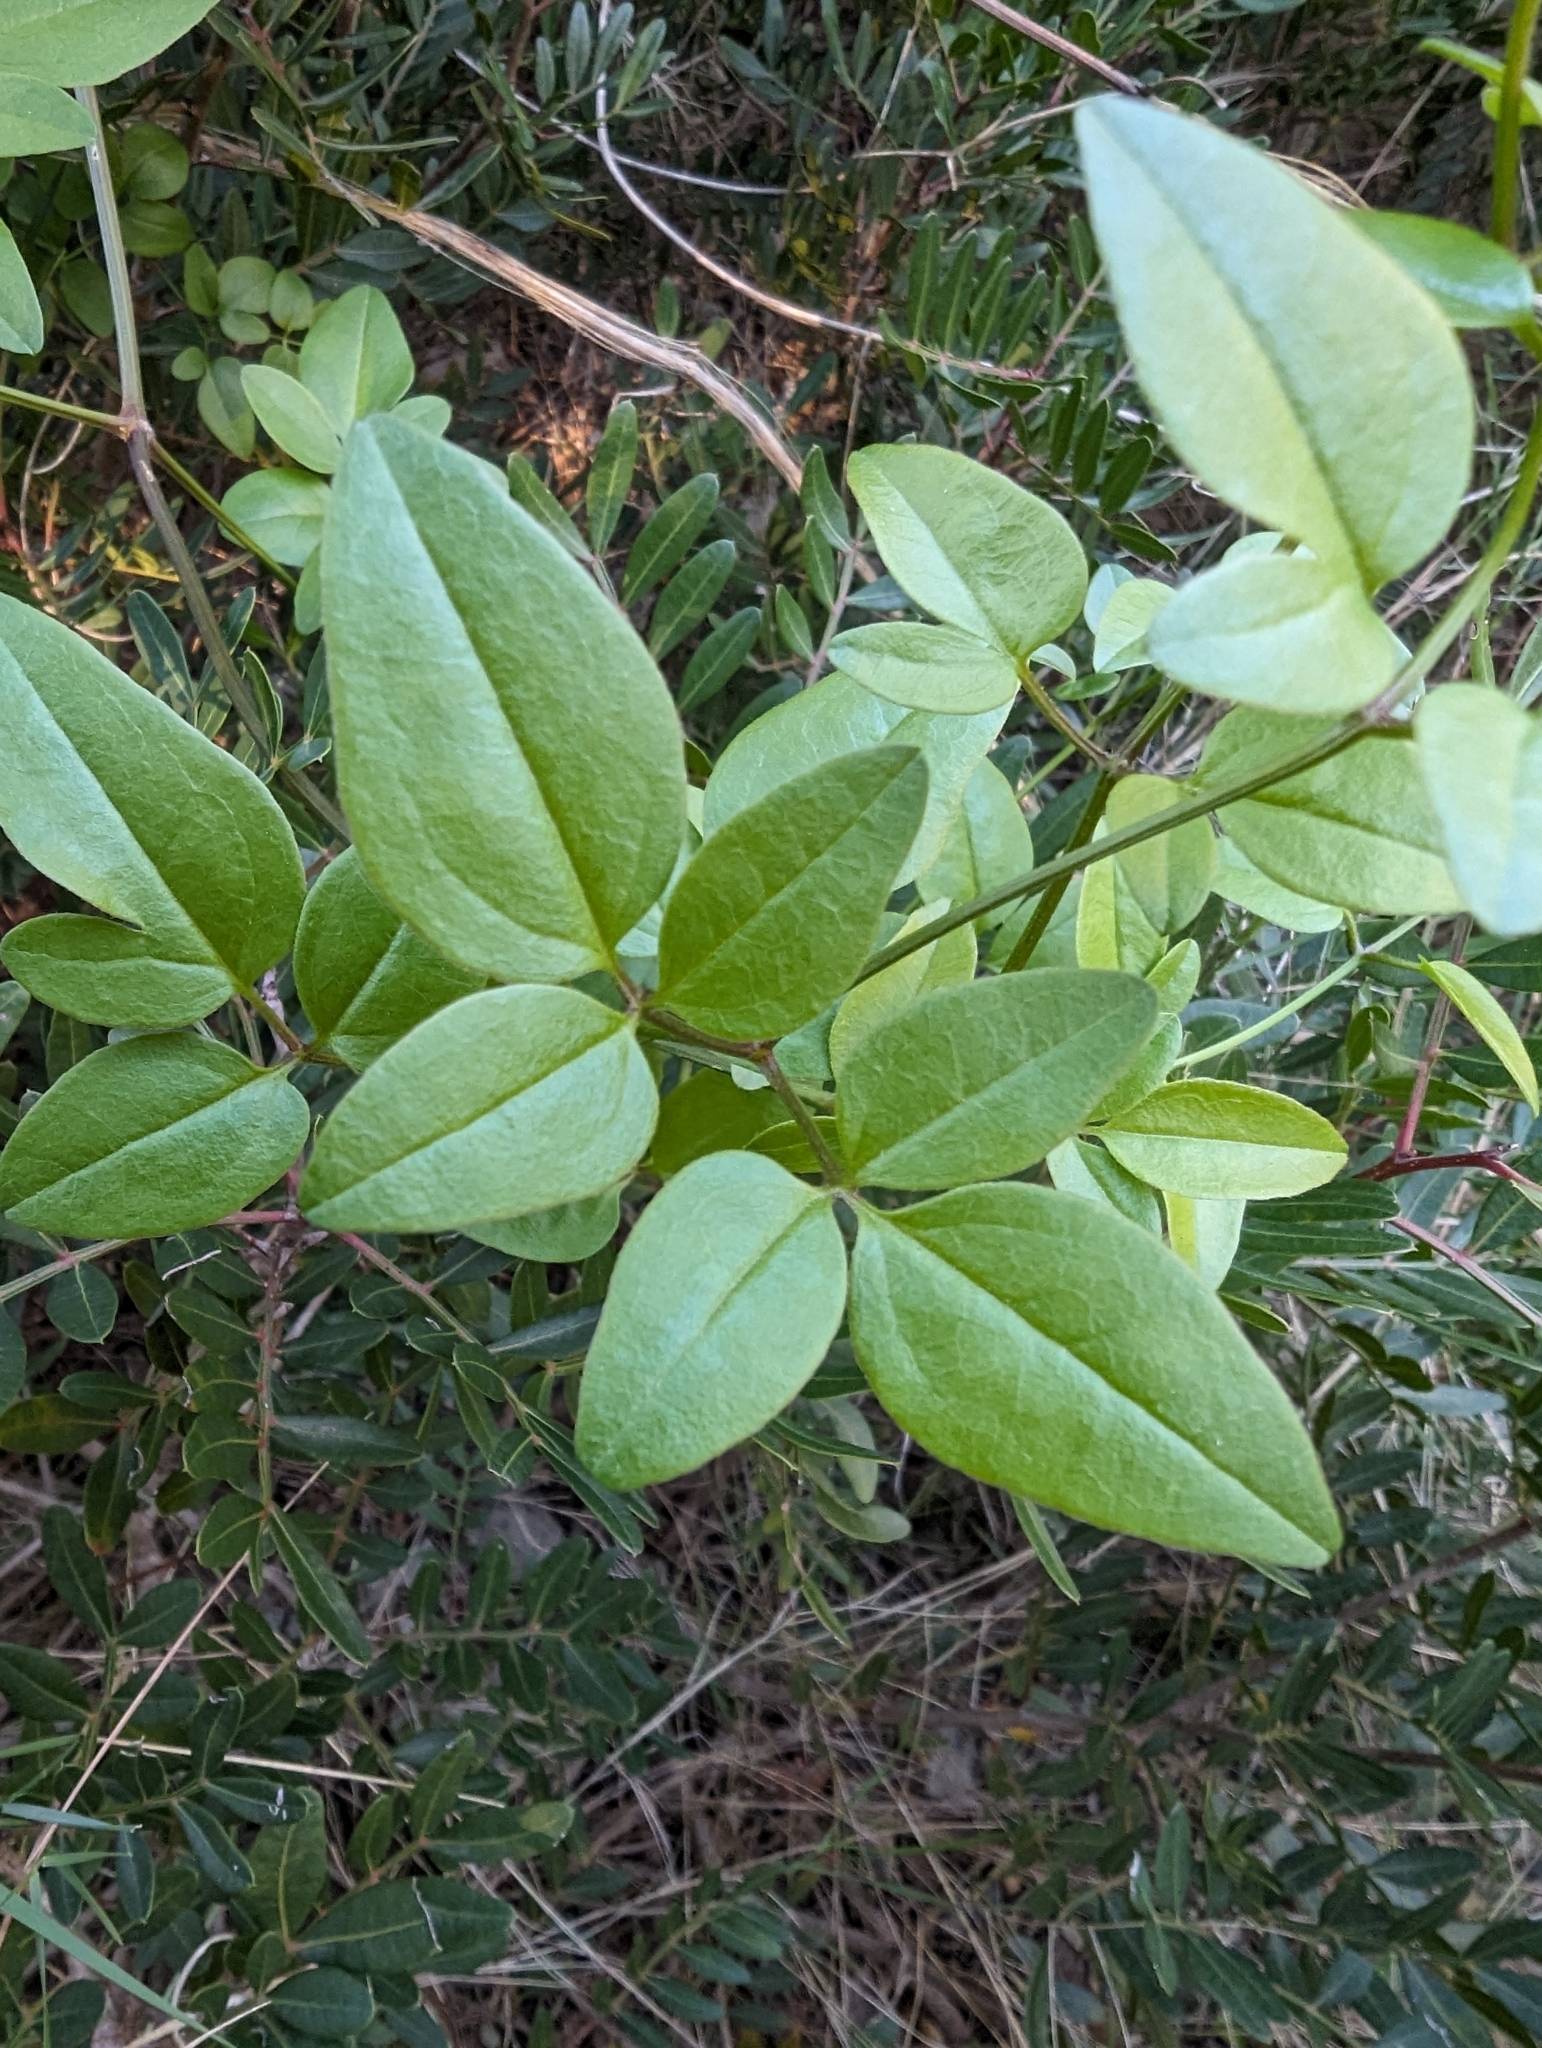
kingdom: Plantae
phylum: Tracheophyta
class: Magnoliopsida
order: Ranunculales
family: Ranunculaceae
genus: Clematis
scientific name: Clematis flammula
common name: Virgin's-bower
